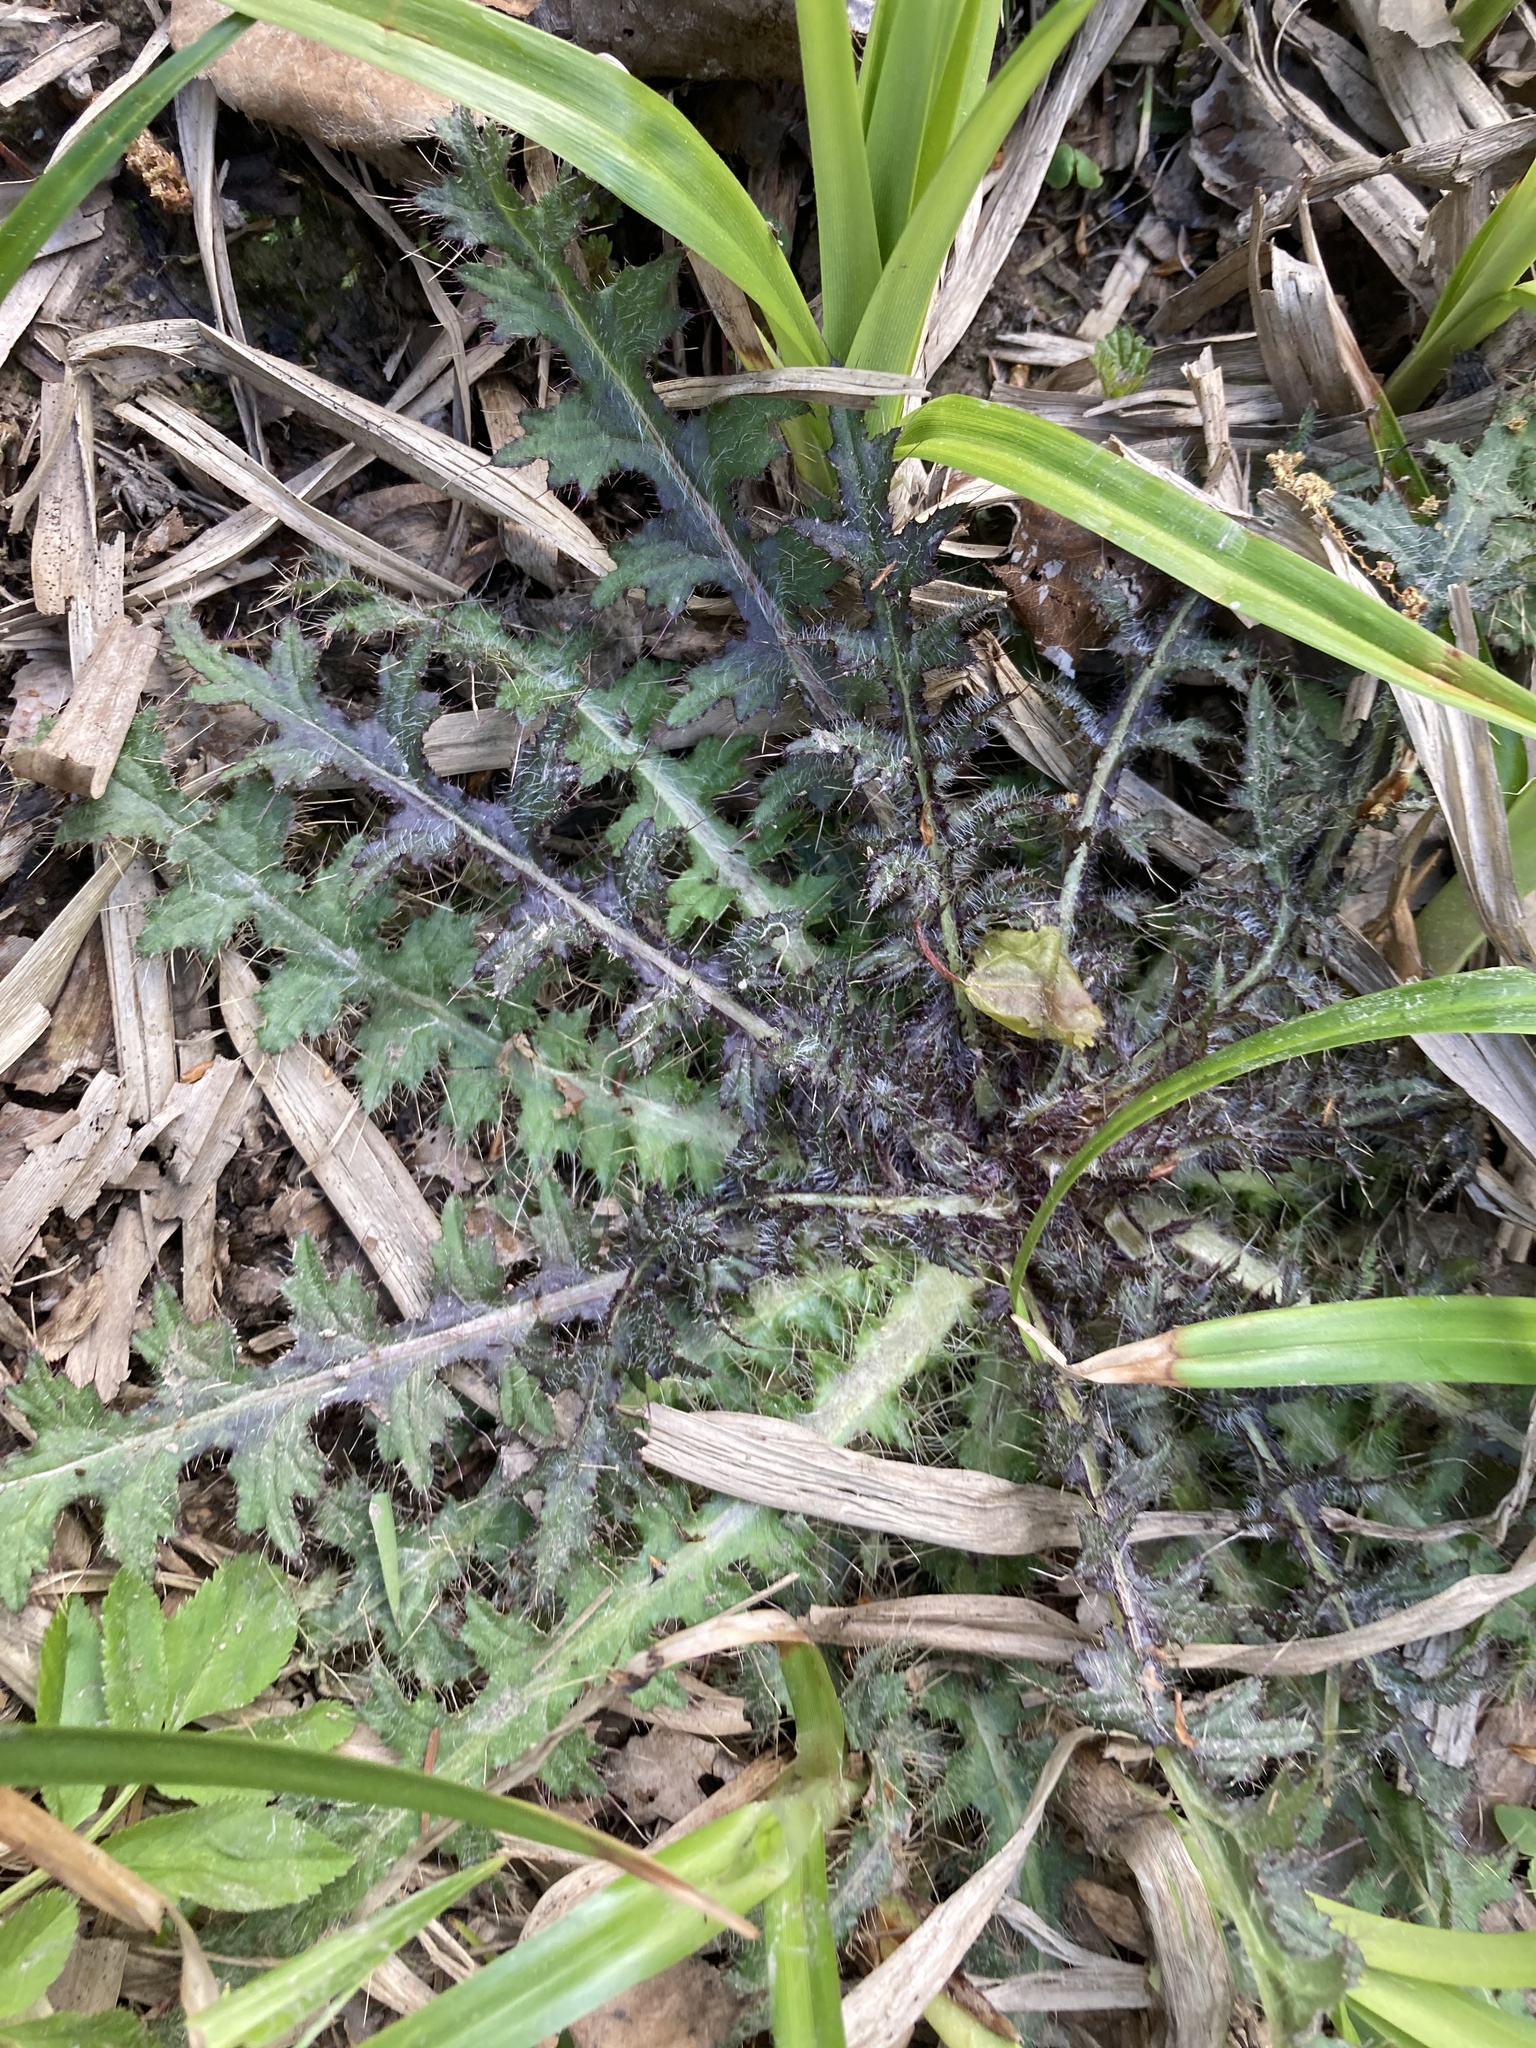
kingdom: Plantae
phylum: Tracheophyta
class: Magnoliopsida
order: Asterales
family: Asteraceae
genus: Cirsium
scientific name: Cirsium palustre
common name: Marsh thistle
